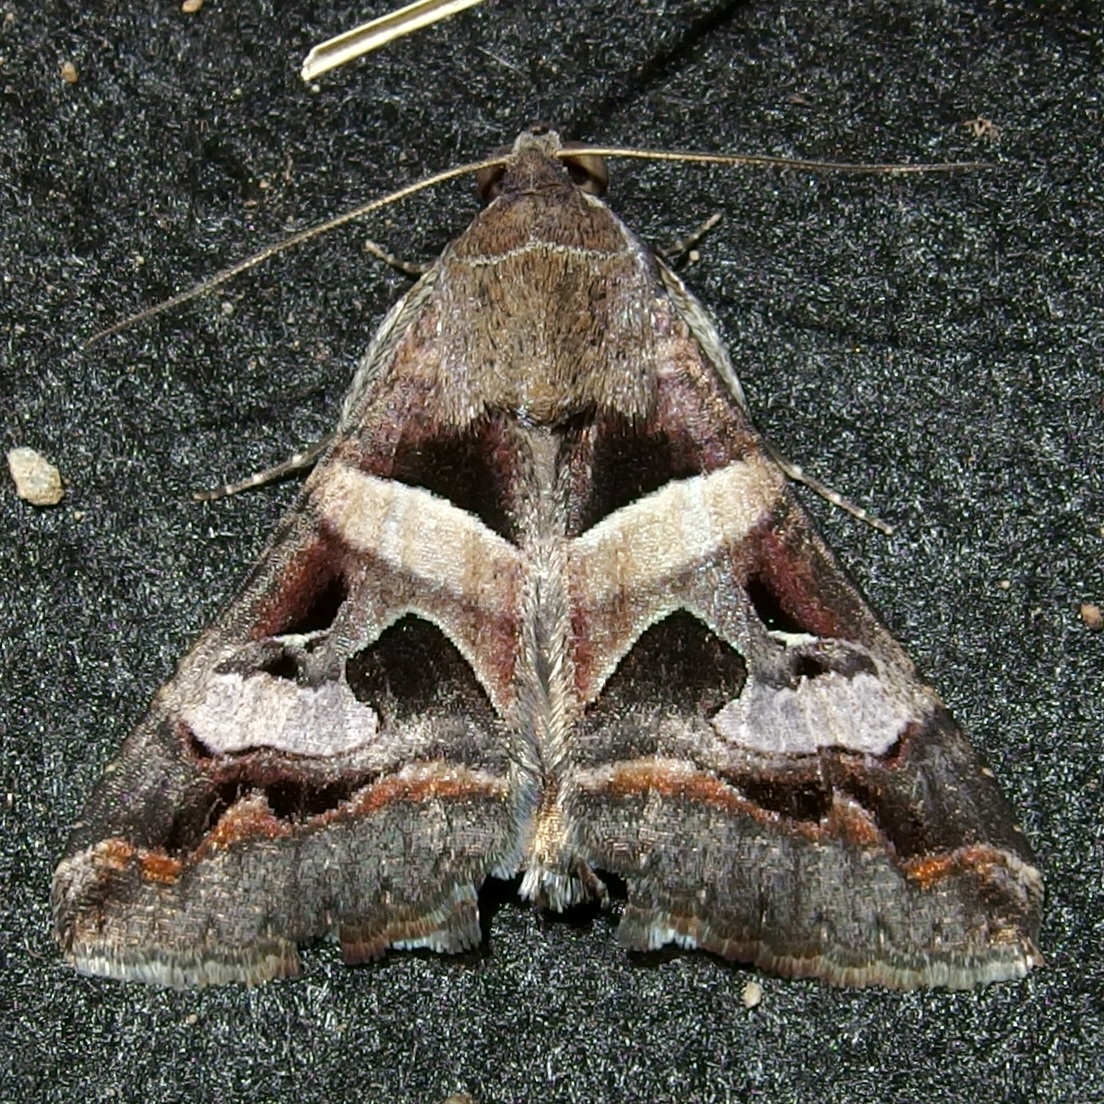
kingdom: Animalia
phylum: Arthropoda
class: Insecta
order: Lepidoptera
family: Erebidae
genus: Melipotis
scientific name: Melipotis perpendicularis
